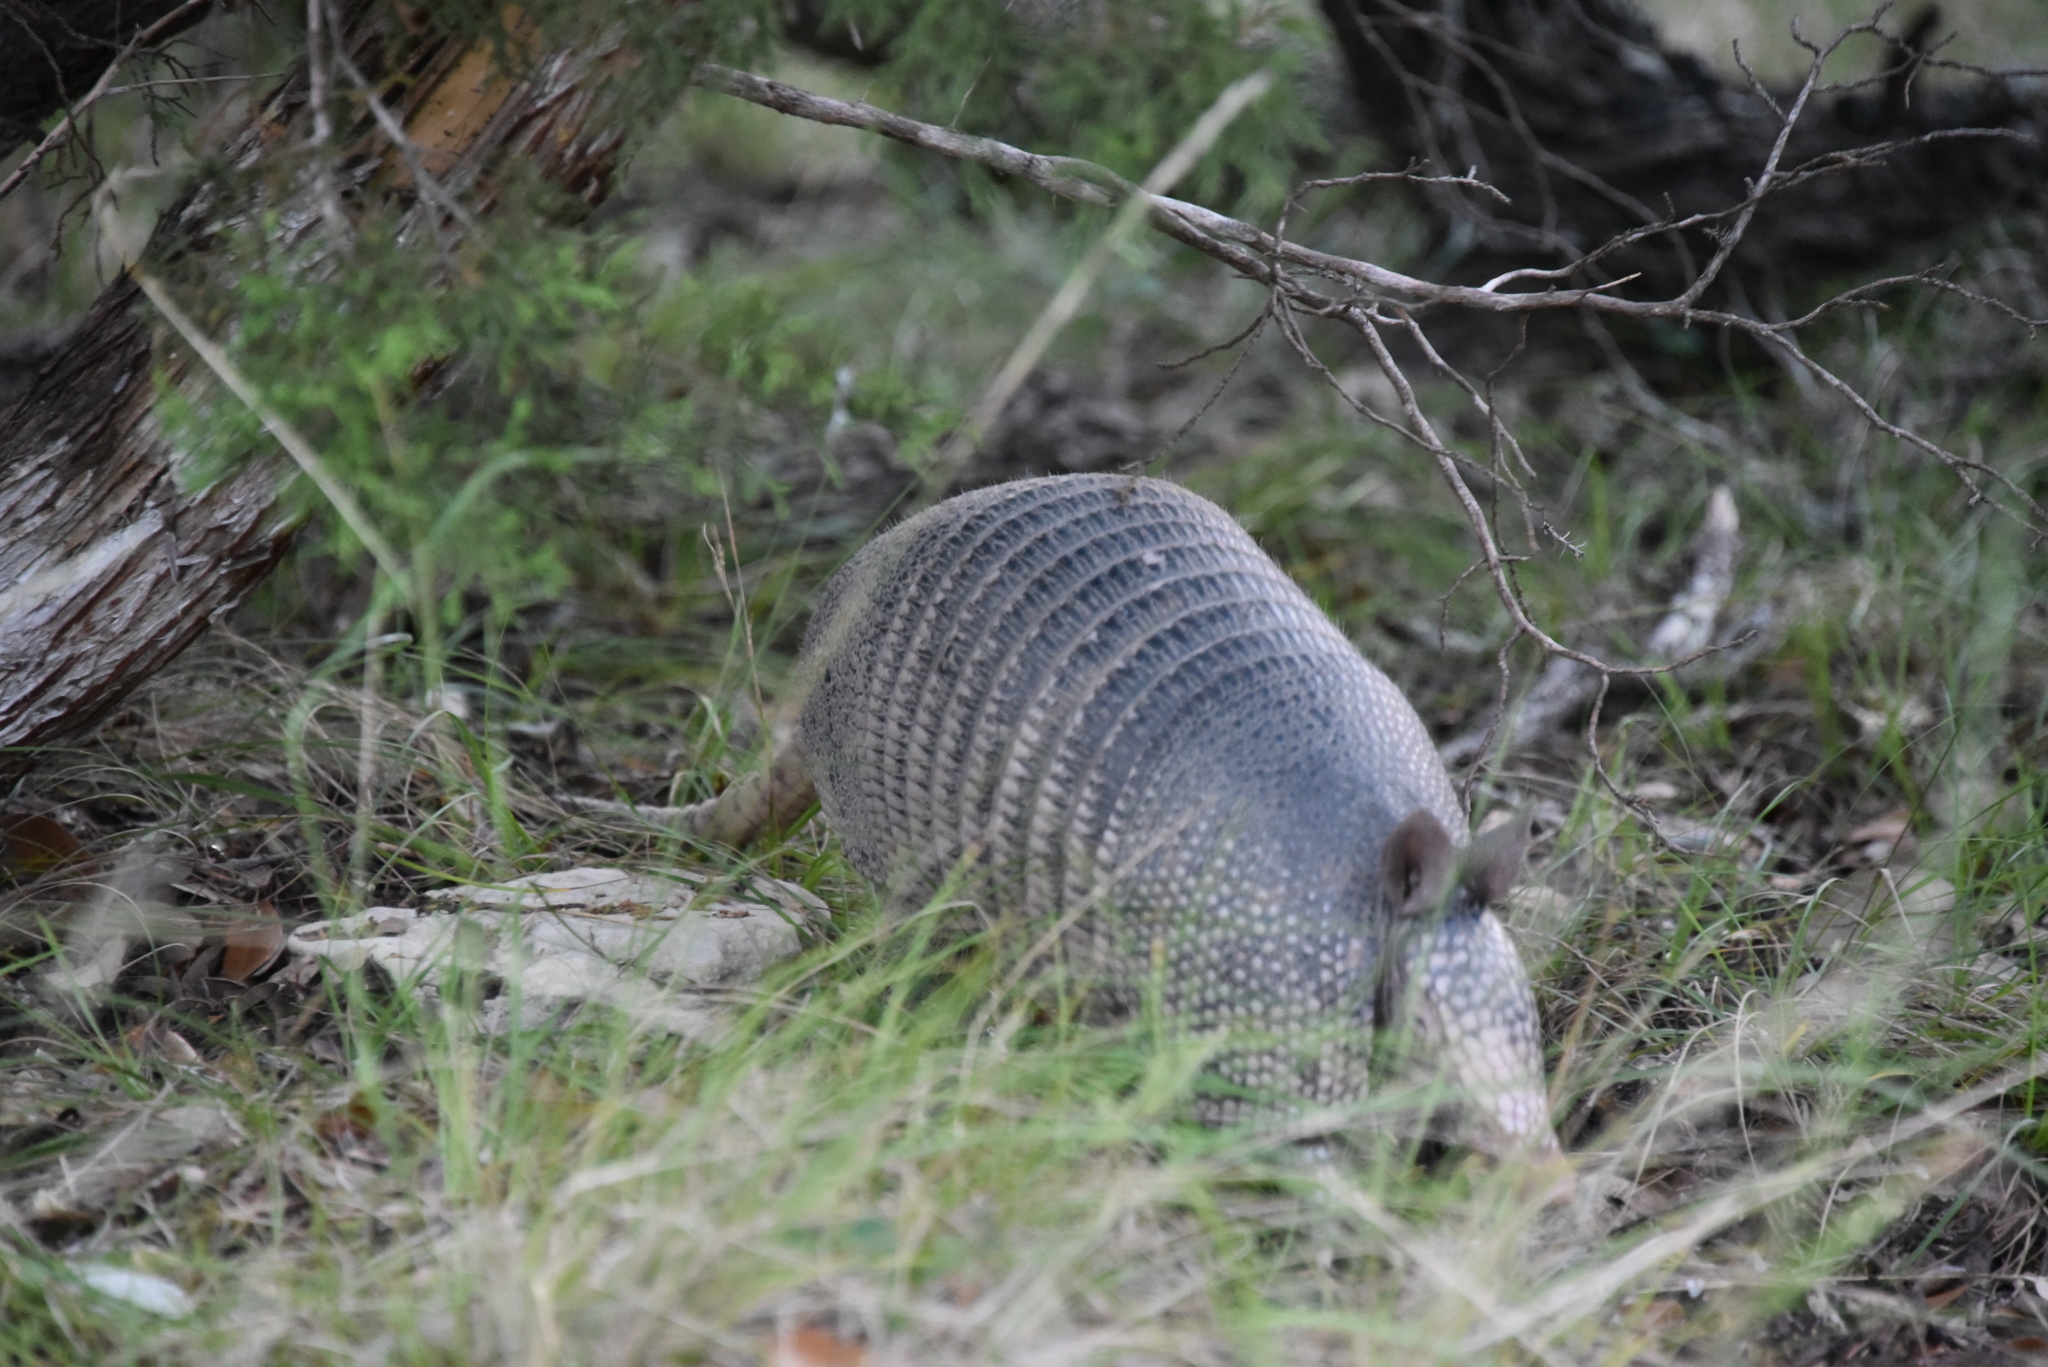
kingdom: Animalia
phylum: Chordata
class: Mammalia
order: Cingulata
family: Dasypodidae
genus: Dasypus
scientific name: Dasypus novemcinctus
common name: Nine-banded armadillo
